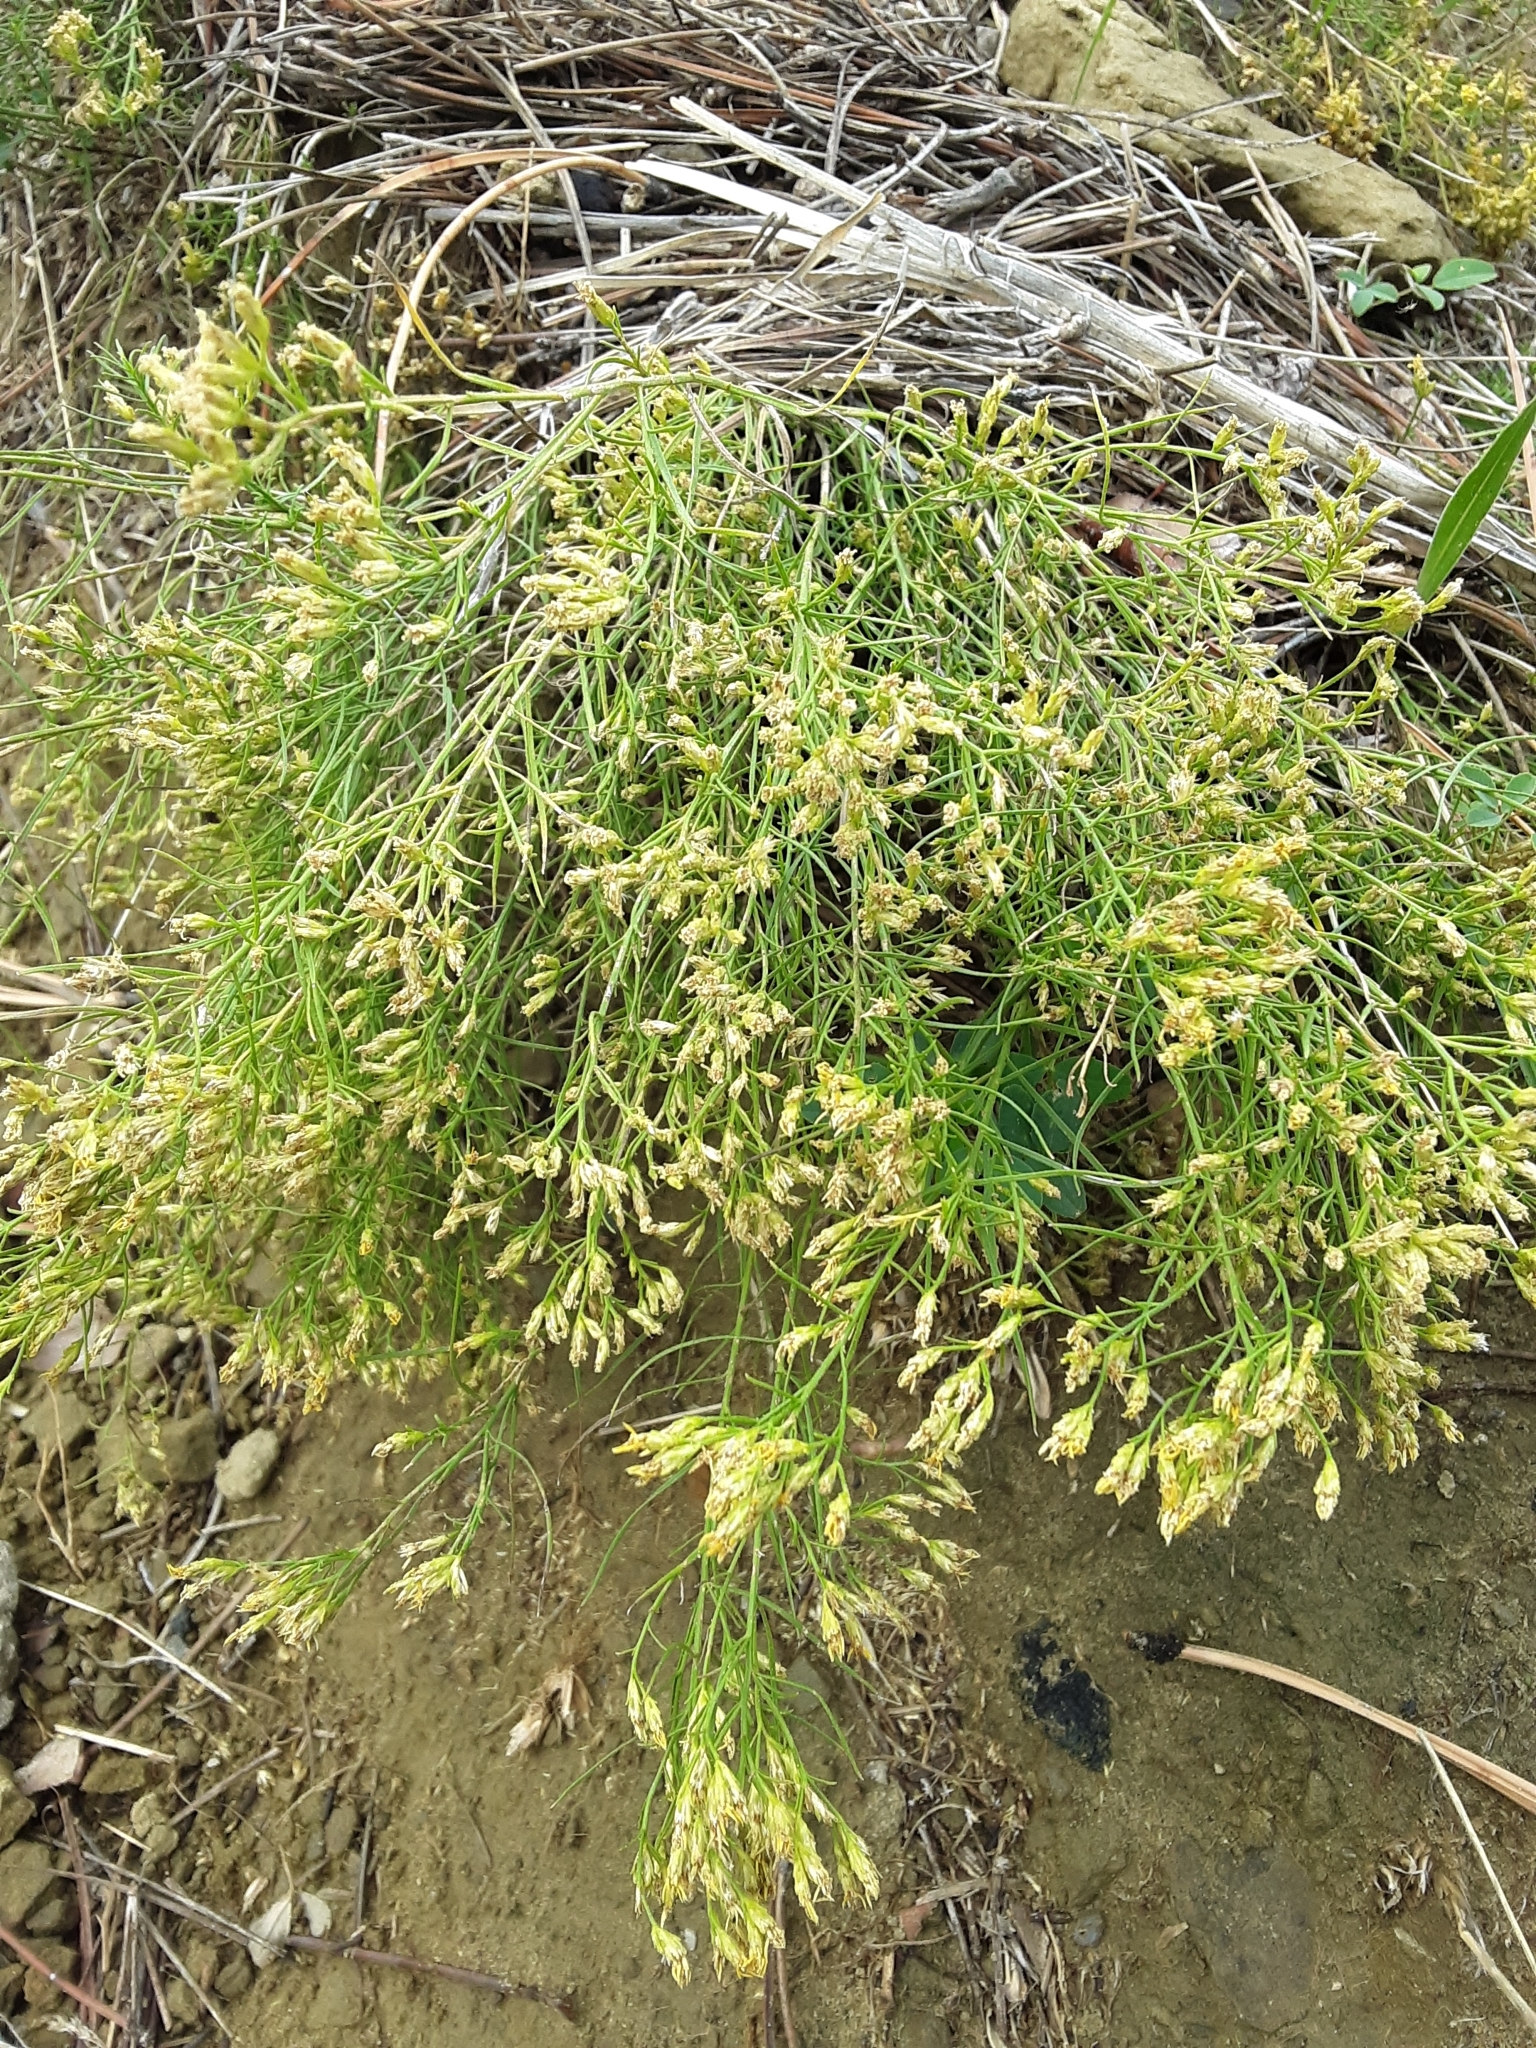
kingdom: Plantae
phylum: Tracheophyta
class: Magnoliopsida
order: Asterales
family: Asteraceae
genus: Gutierrezia
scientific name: Gutierrezia sarothrae
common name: Broom snakeweed
